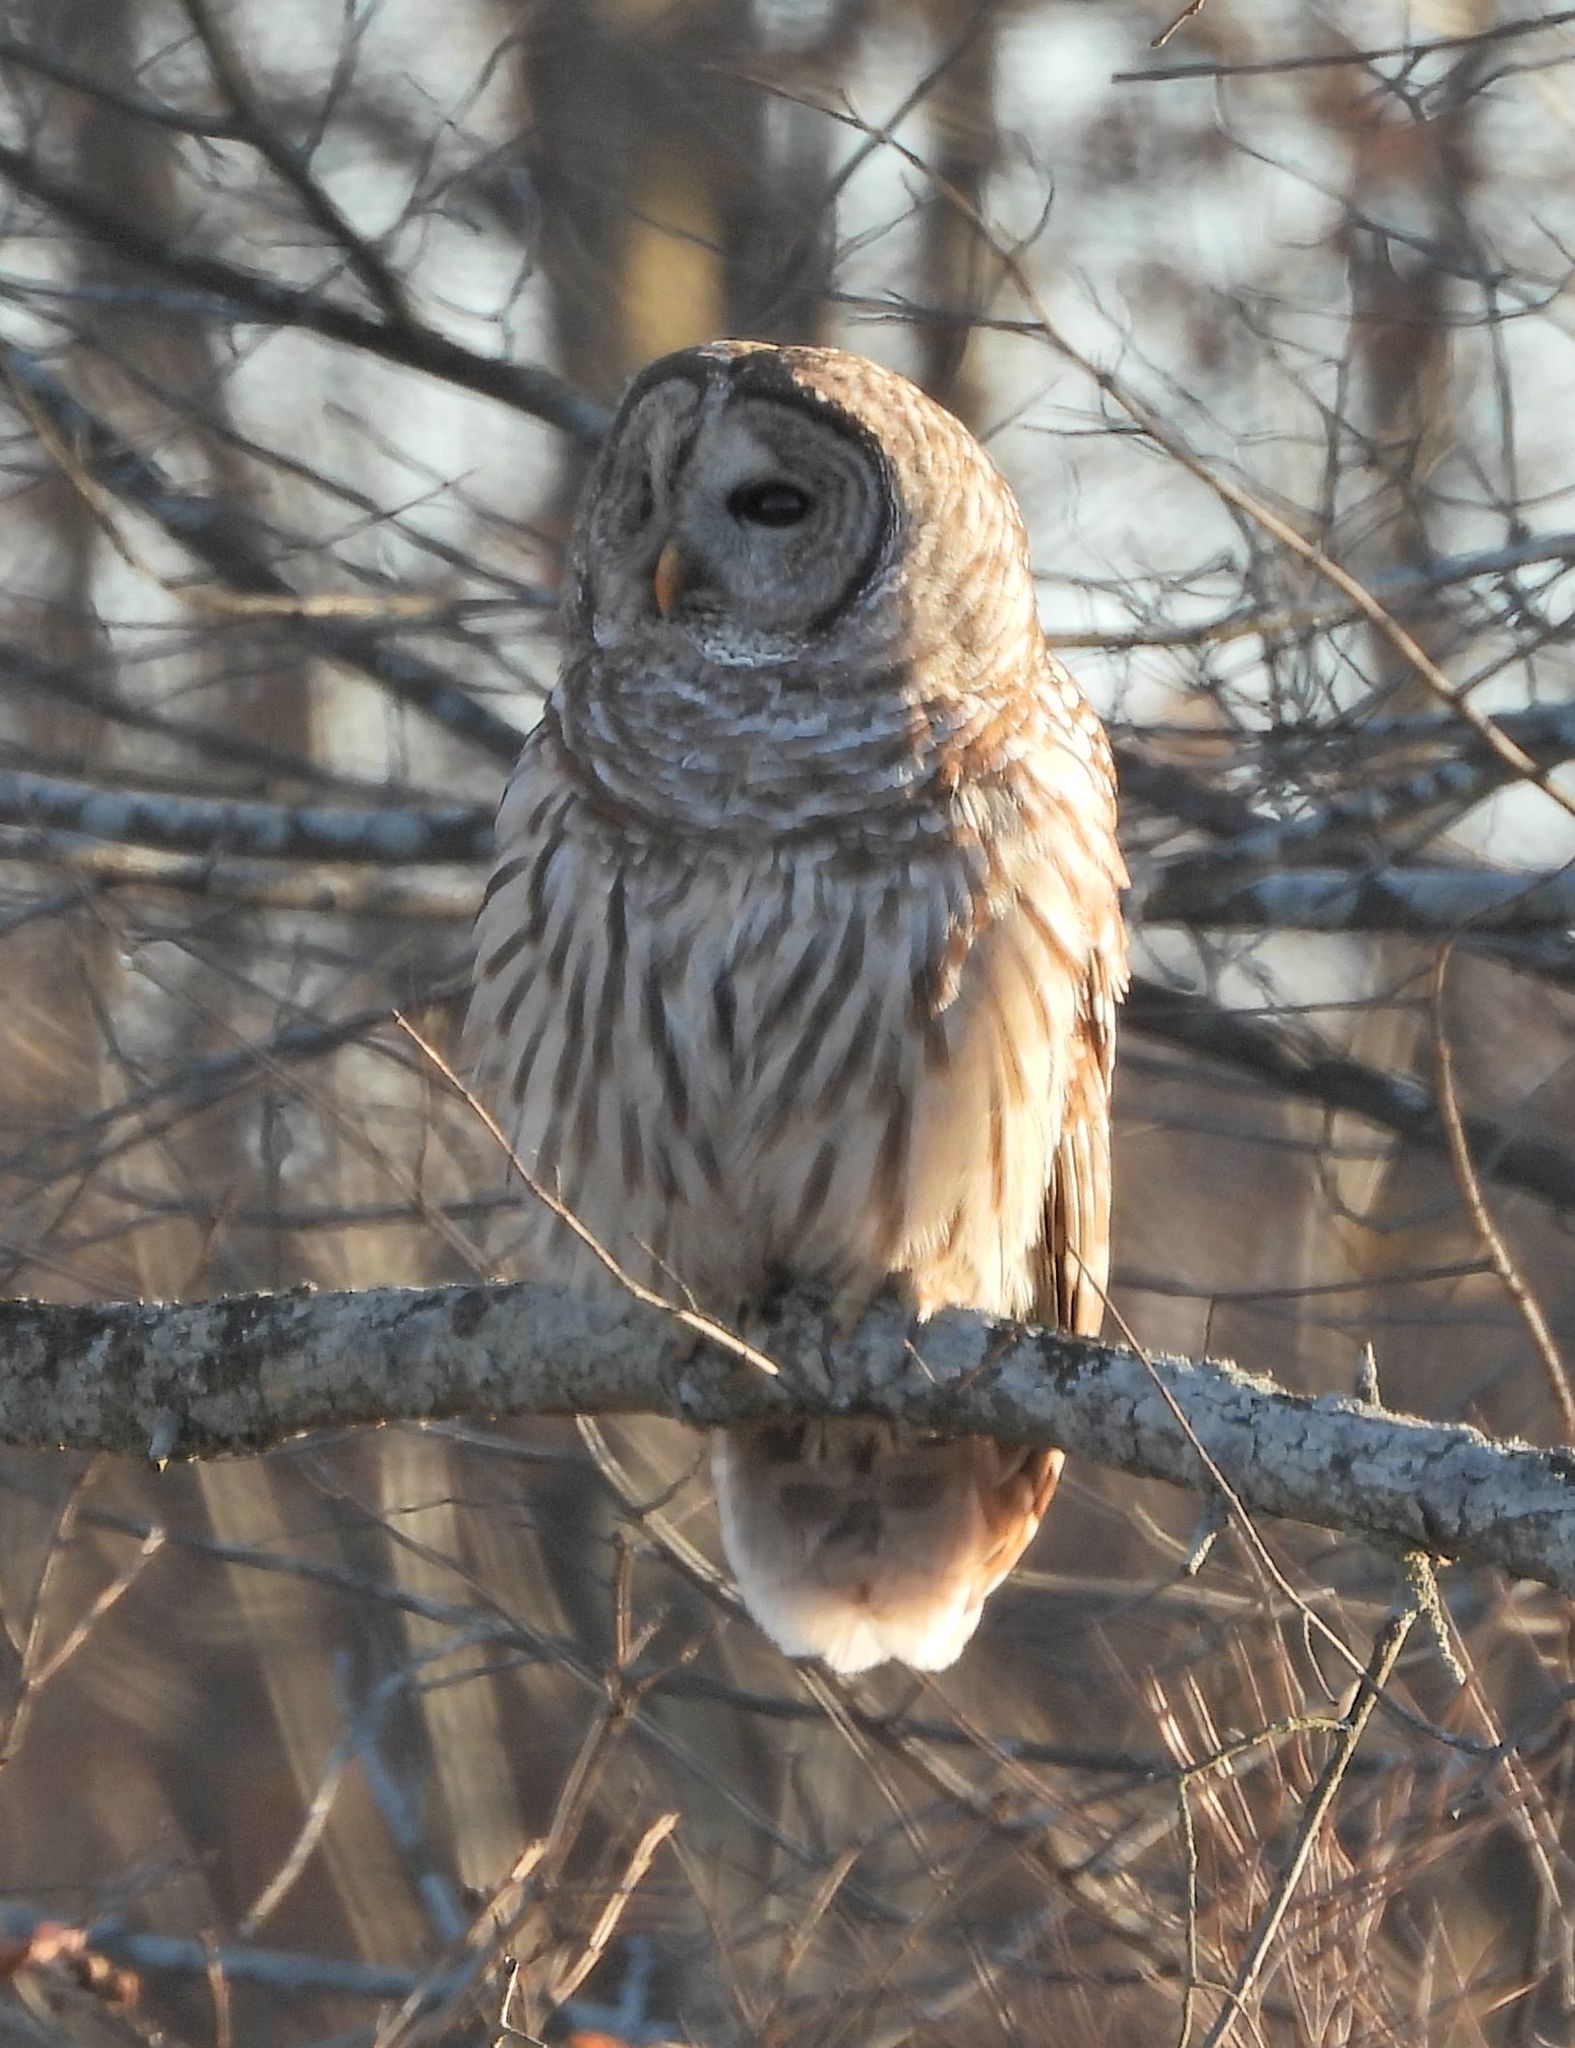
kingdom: Animalia
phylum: Chordata
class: Aves
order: Strigiformes
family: Strigidae
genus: Strix
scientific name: Strix varia
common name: Barred owl
